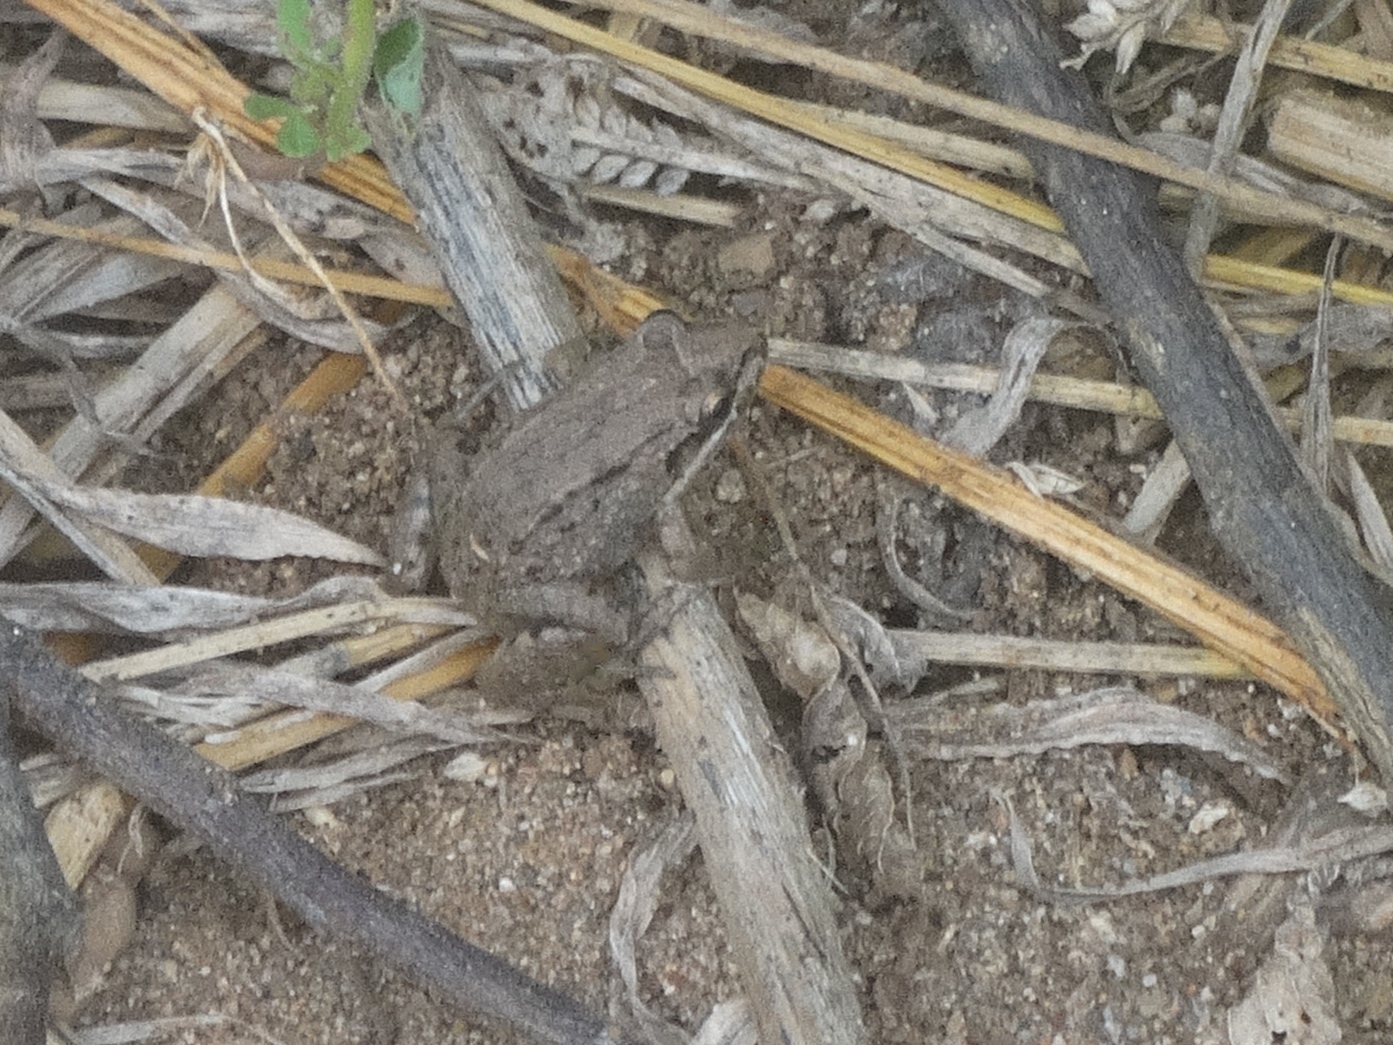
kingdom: Animalia
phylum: Chordata
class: Amphibia
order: Anura
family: Leptodactylidae
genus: Leptodactylus
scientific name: Leptodactylus melanonotus
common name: Fringe-toed foamfrog
